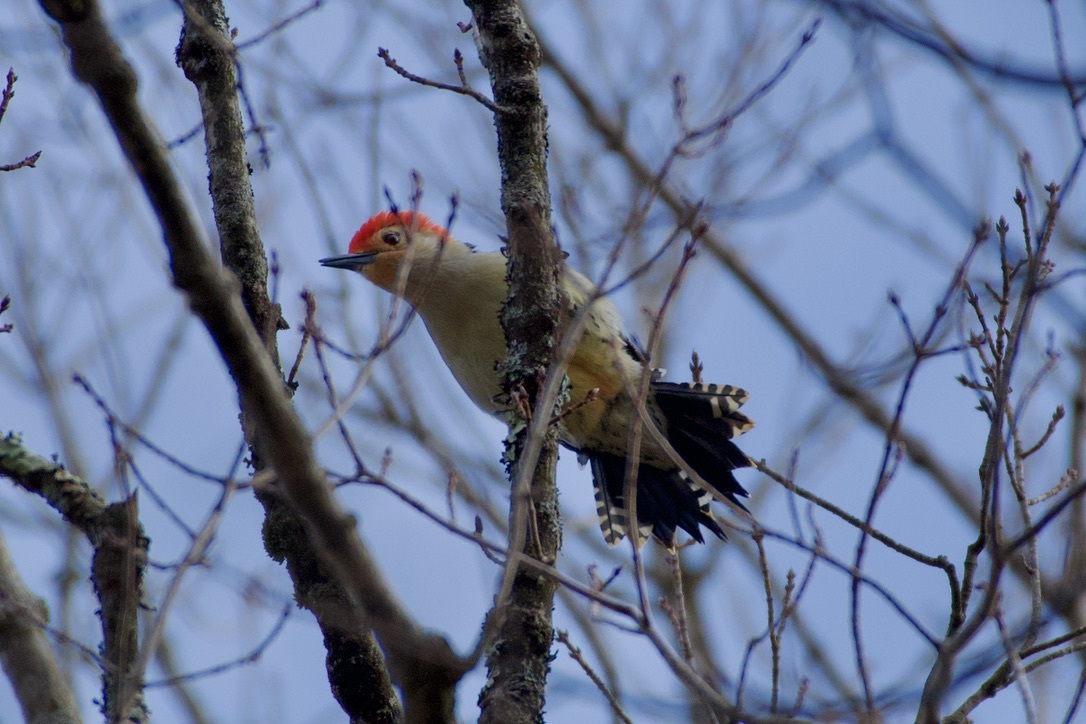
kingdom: Animalia
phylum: Chordata
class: Aves
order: Piciformes
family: Picidae
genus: Melanerpes
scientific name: Melanerpes carolinus
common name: Red-bellied woodpecker
